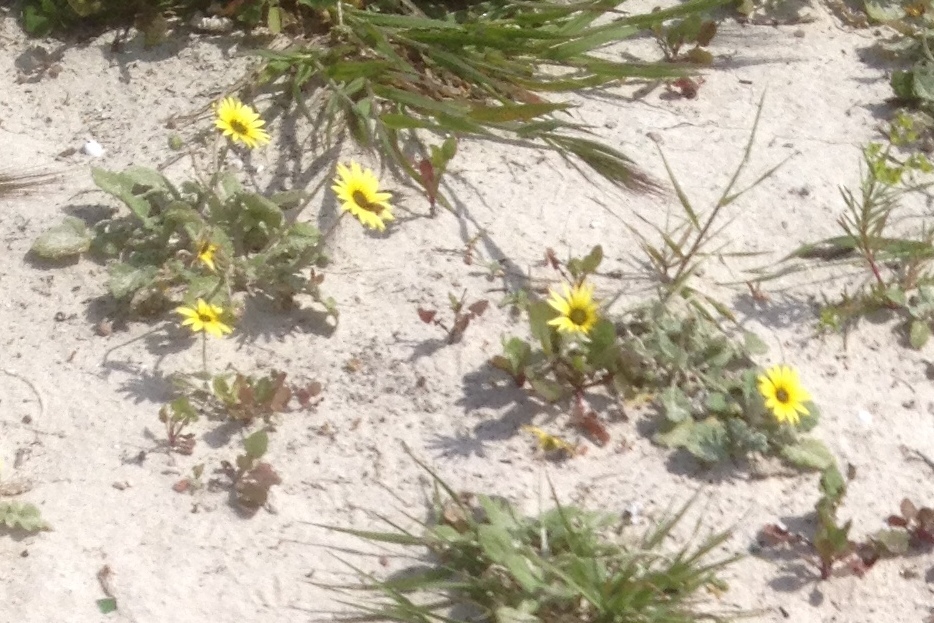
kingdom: Plantae
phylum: Tracheophyta
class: Magnoliopsida
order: Asterales
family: Asteraceae
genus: Arctotheca
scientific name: Arctotheca calendula
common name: Capeweed
